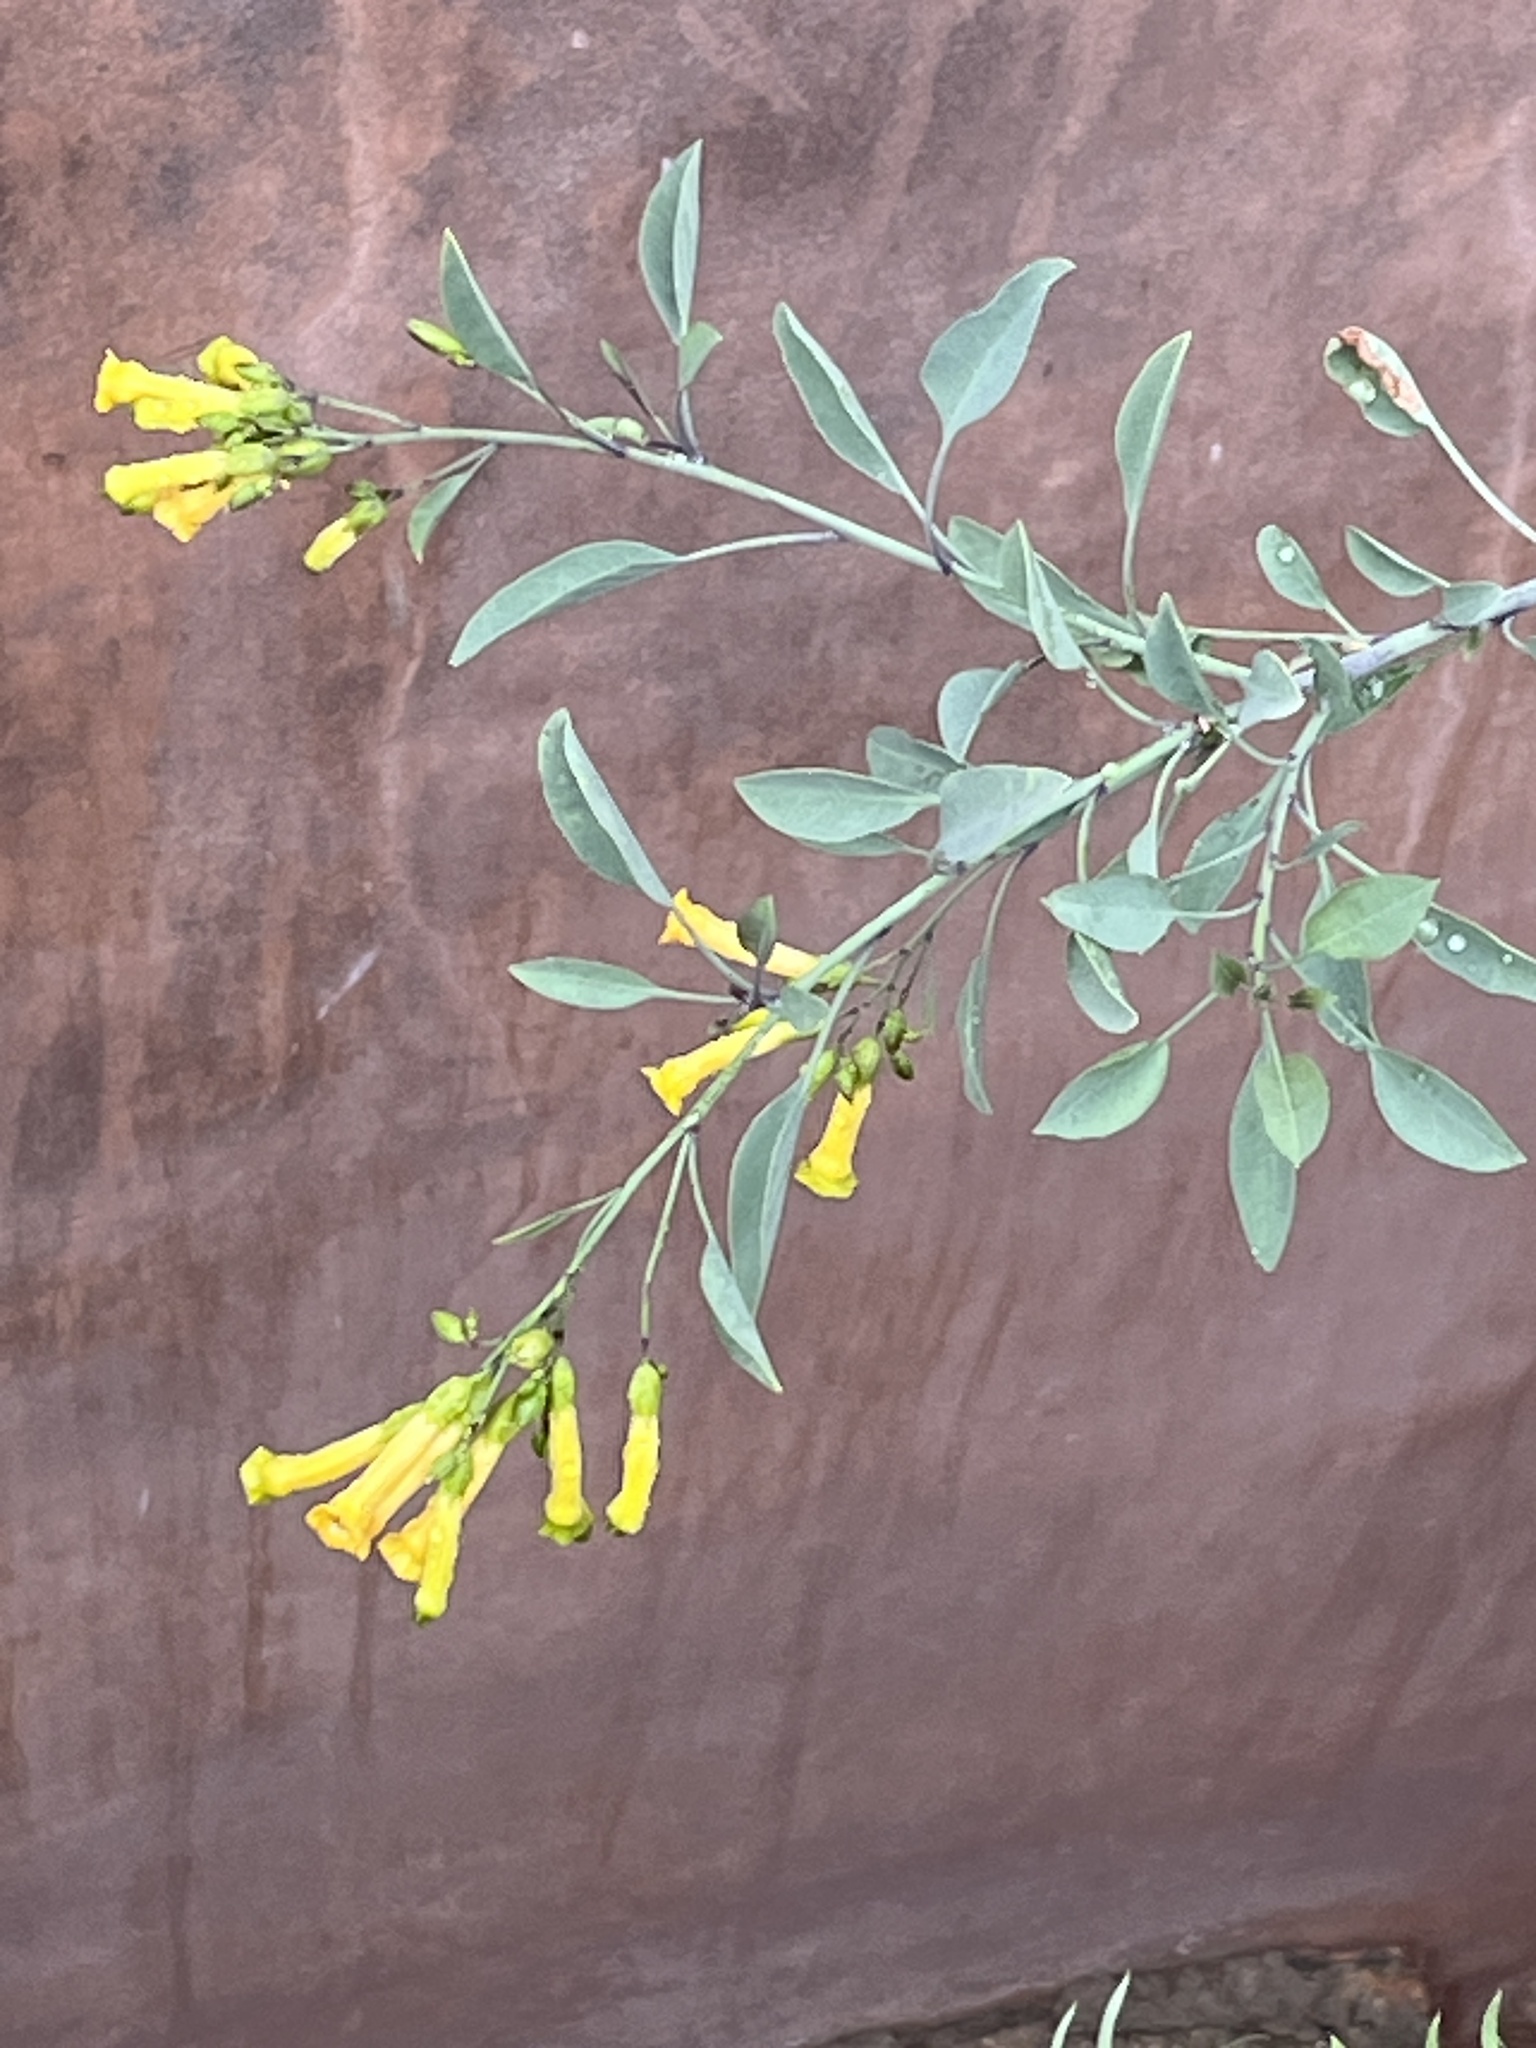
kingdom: Plantae
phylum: Tracheophyta
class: Magnoliopsida
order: Solanales
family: Solanaceae
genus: Nicotiana
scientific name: Nicotiana glauca
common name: Tree tobacco
